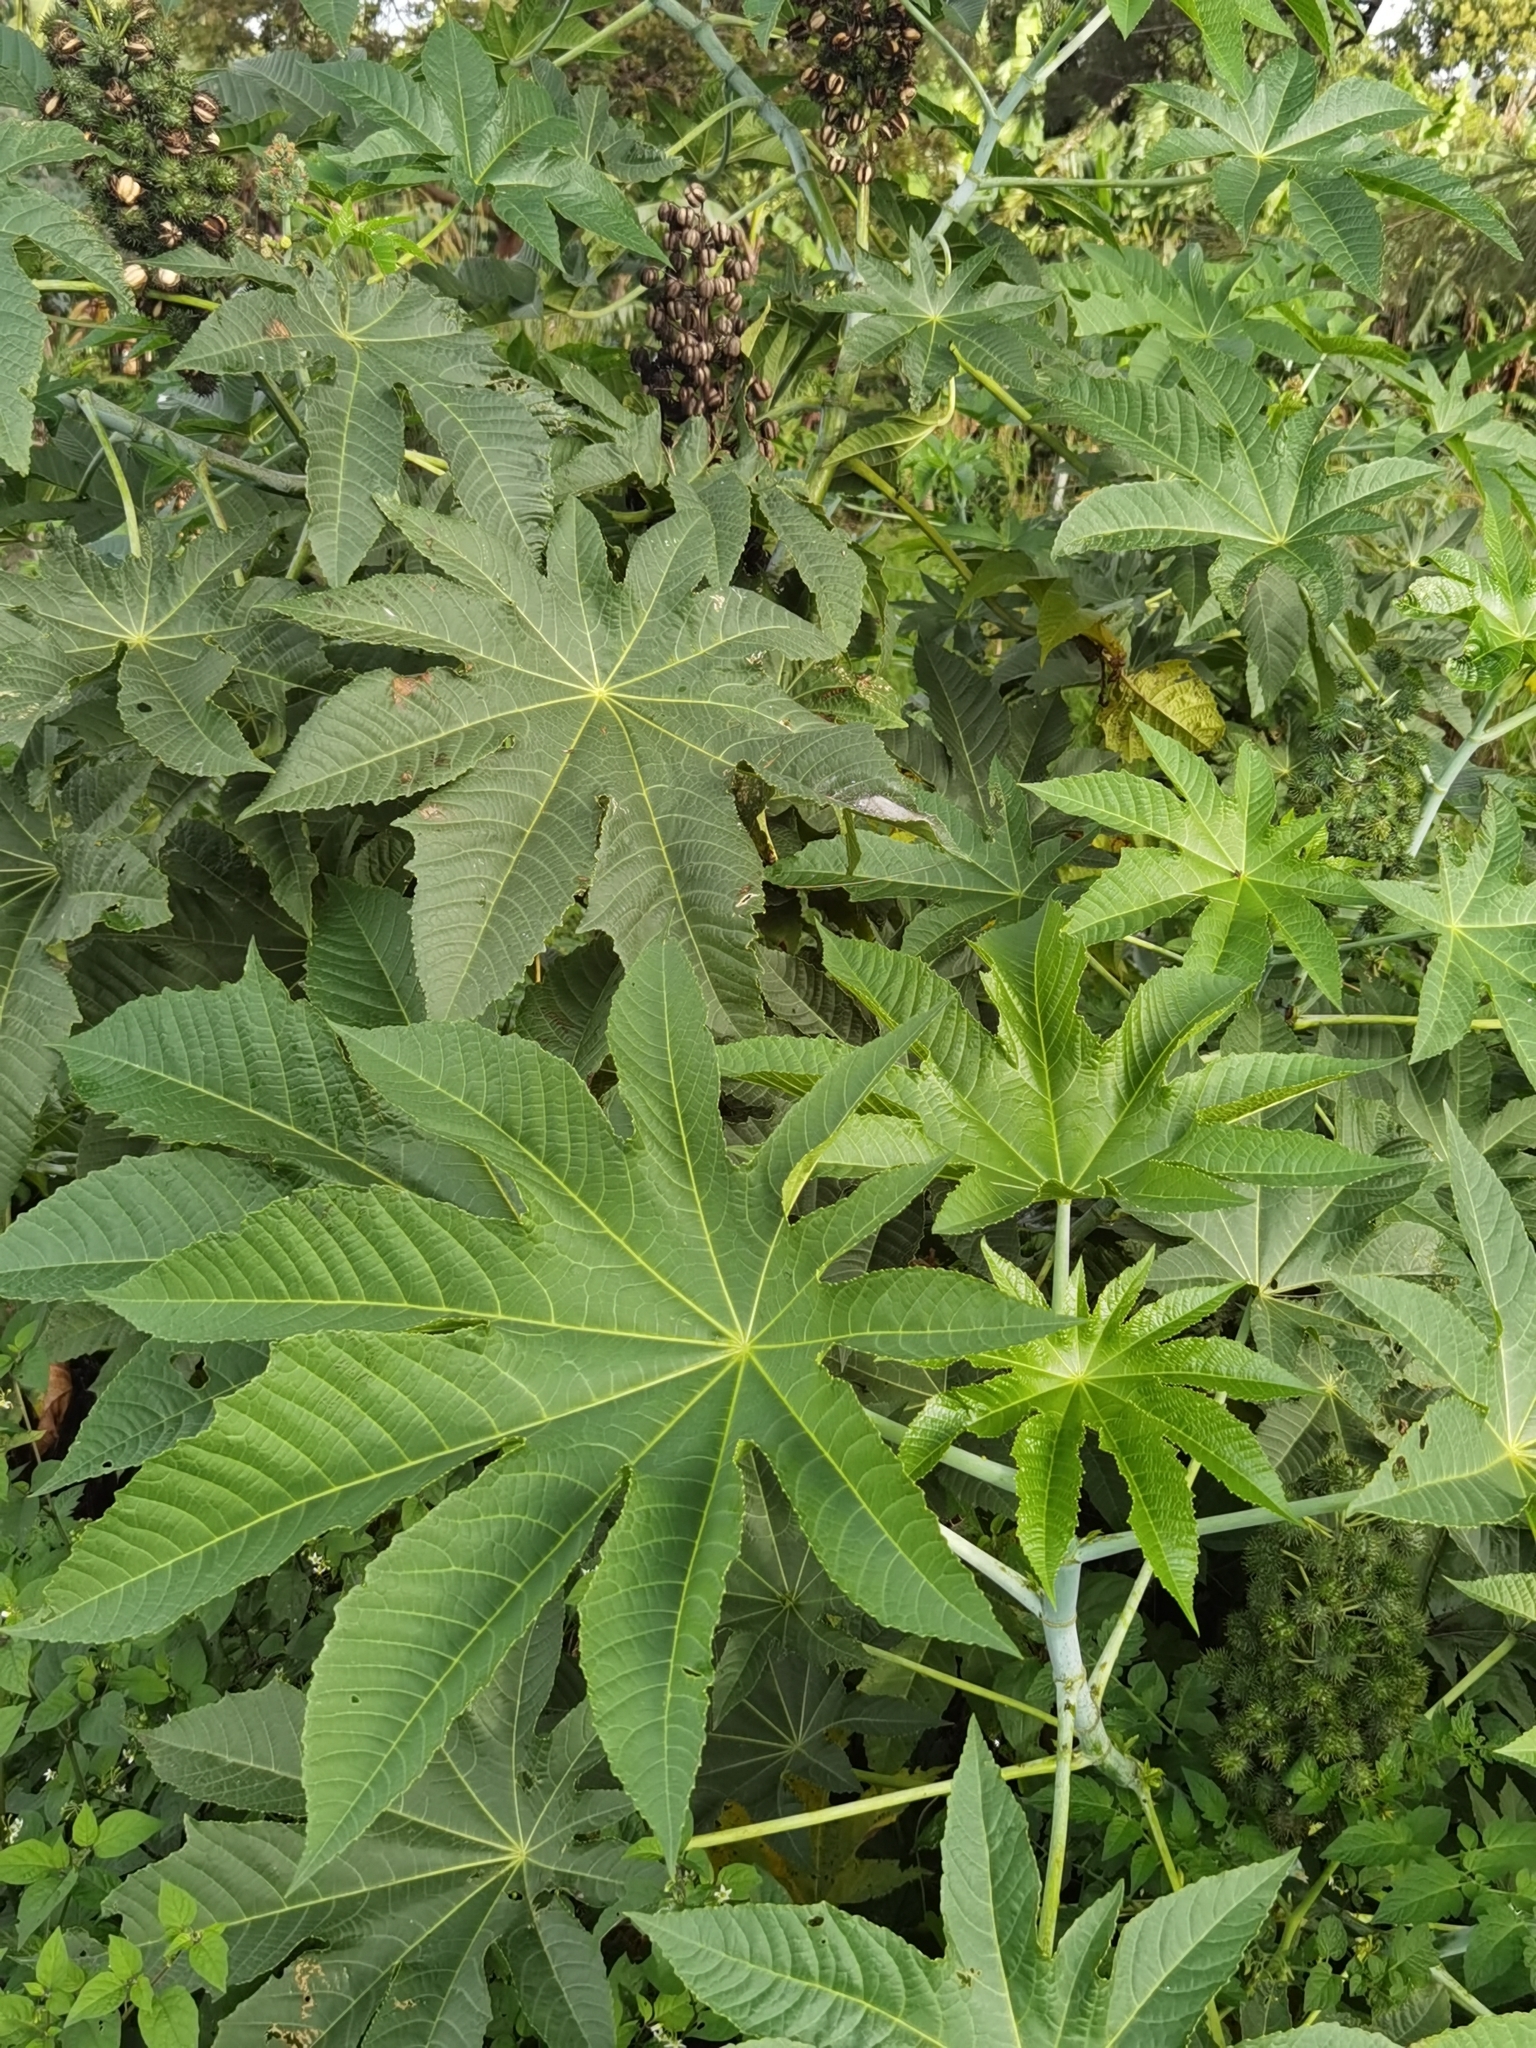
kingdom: Plantae
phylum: Tracheophyta
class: Magnoliopsida
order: Malpighiales
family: Euphorbiaceae
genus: Ricinus
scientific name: Ricinus communis
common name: Castor-oil-plant
